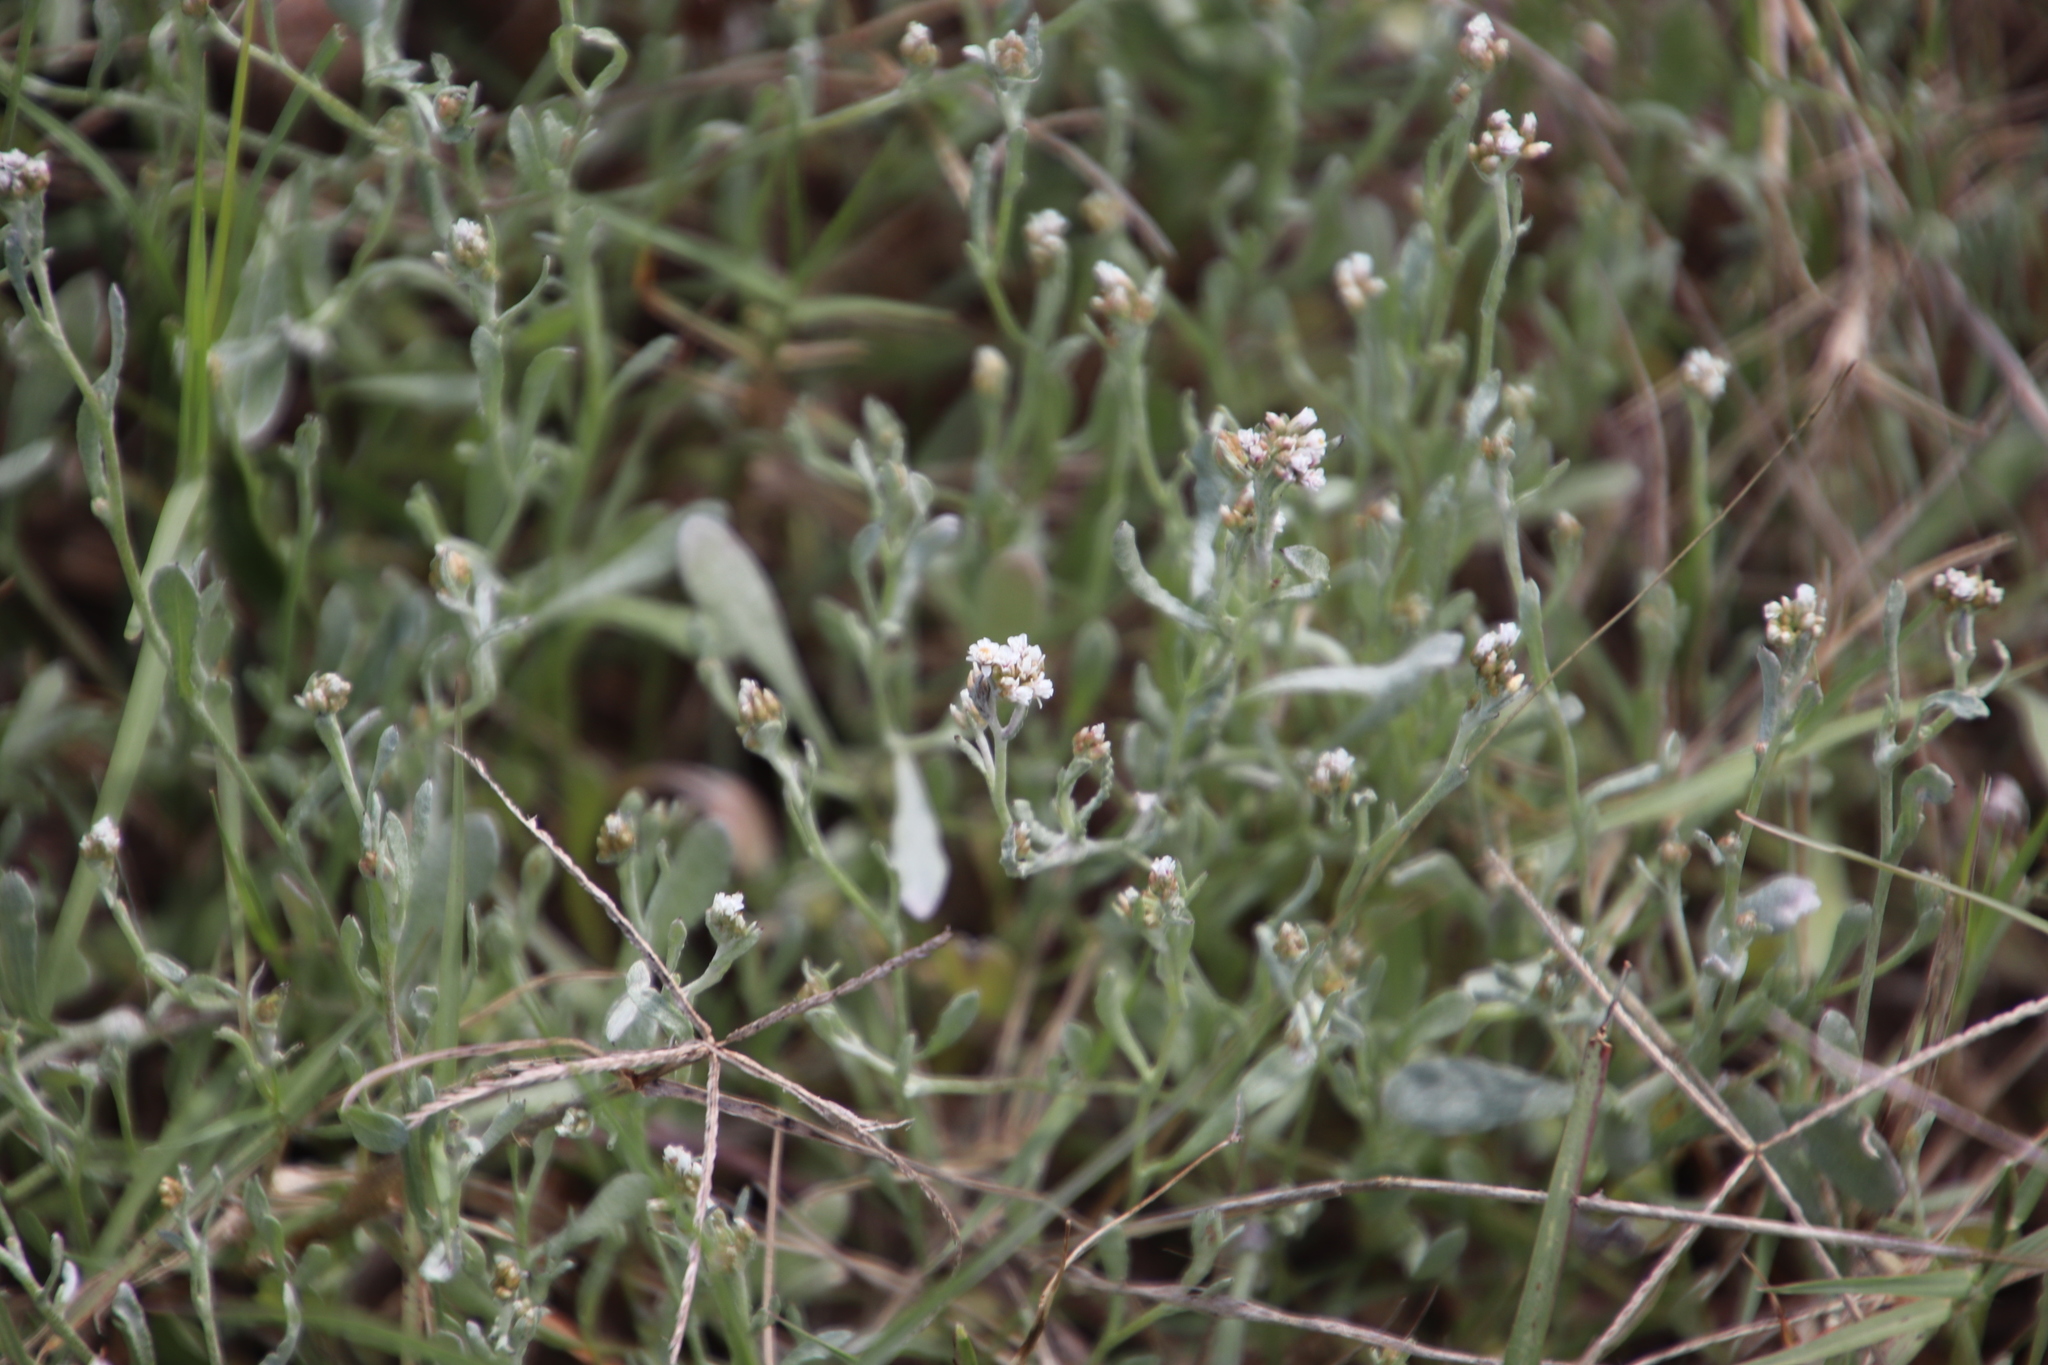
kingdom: Plantae
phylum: Tracheophyta
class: Magnoliopsida
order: Asterales
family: Asteraceae
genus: Helichrysum
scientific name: Helichrysum indicum
